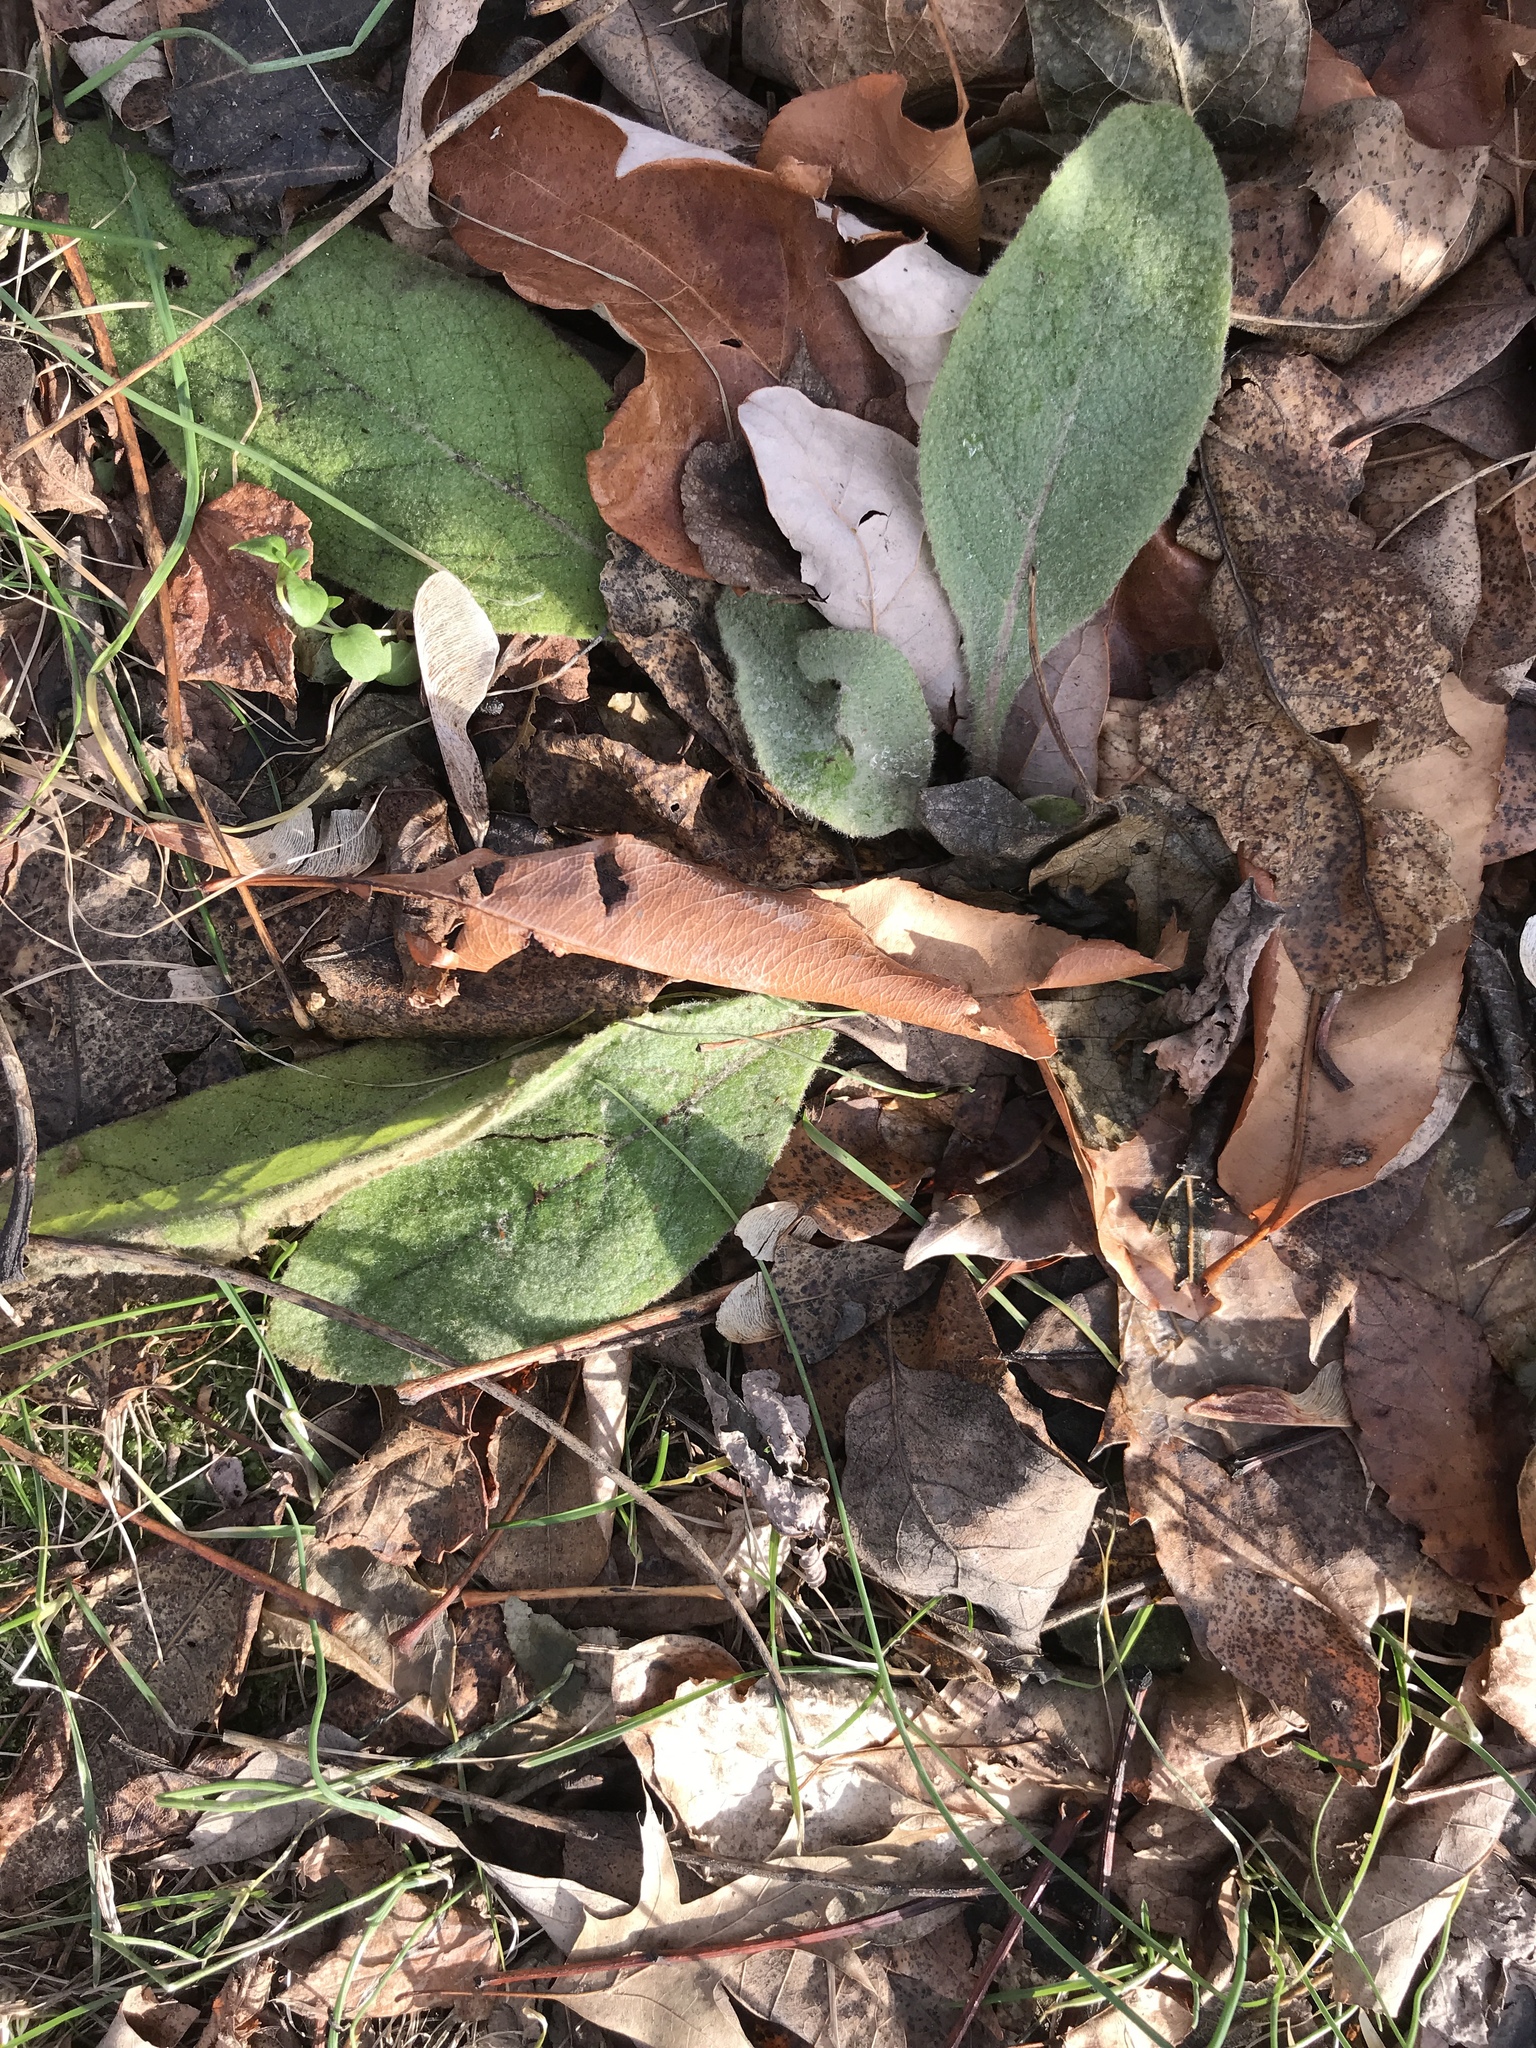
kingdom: Plantae
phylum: Tracheophyta
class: Magnoliopsida
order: Lamiales
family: Scrophulariaceae
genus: Verbascum
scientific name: Verbascum thapsus
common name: Common mullein
